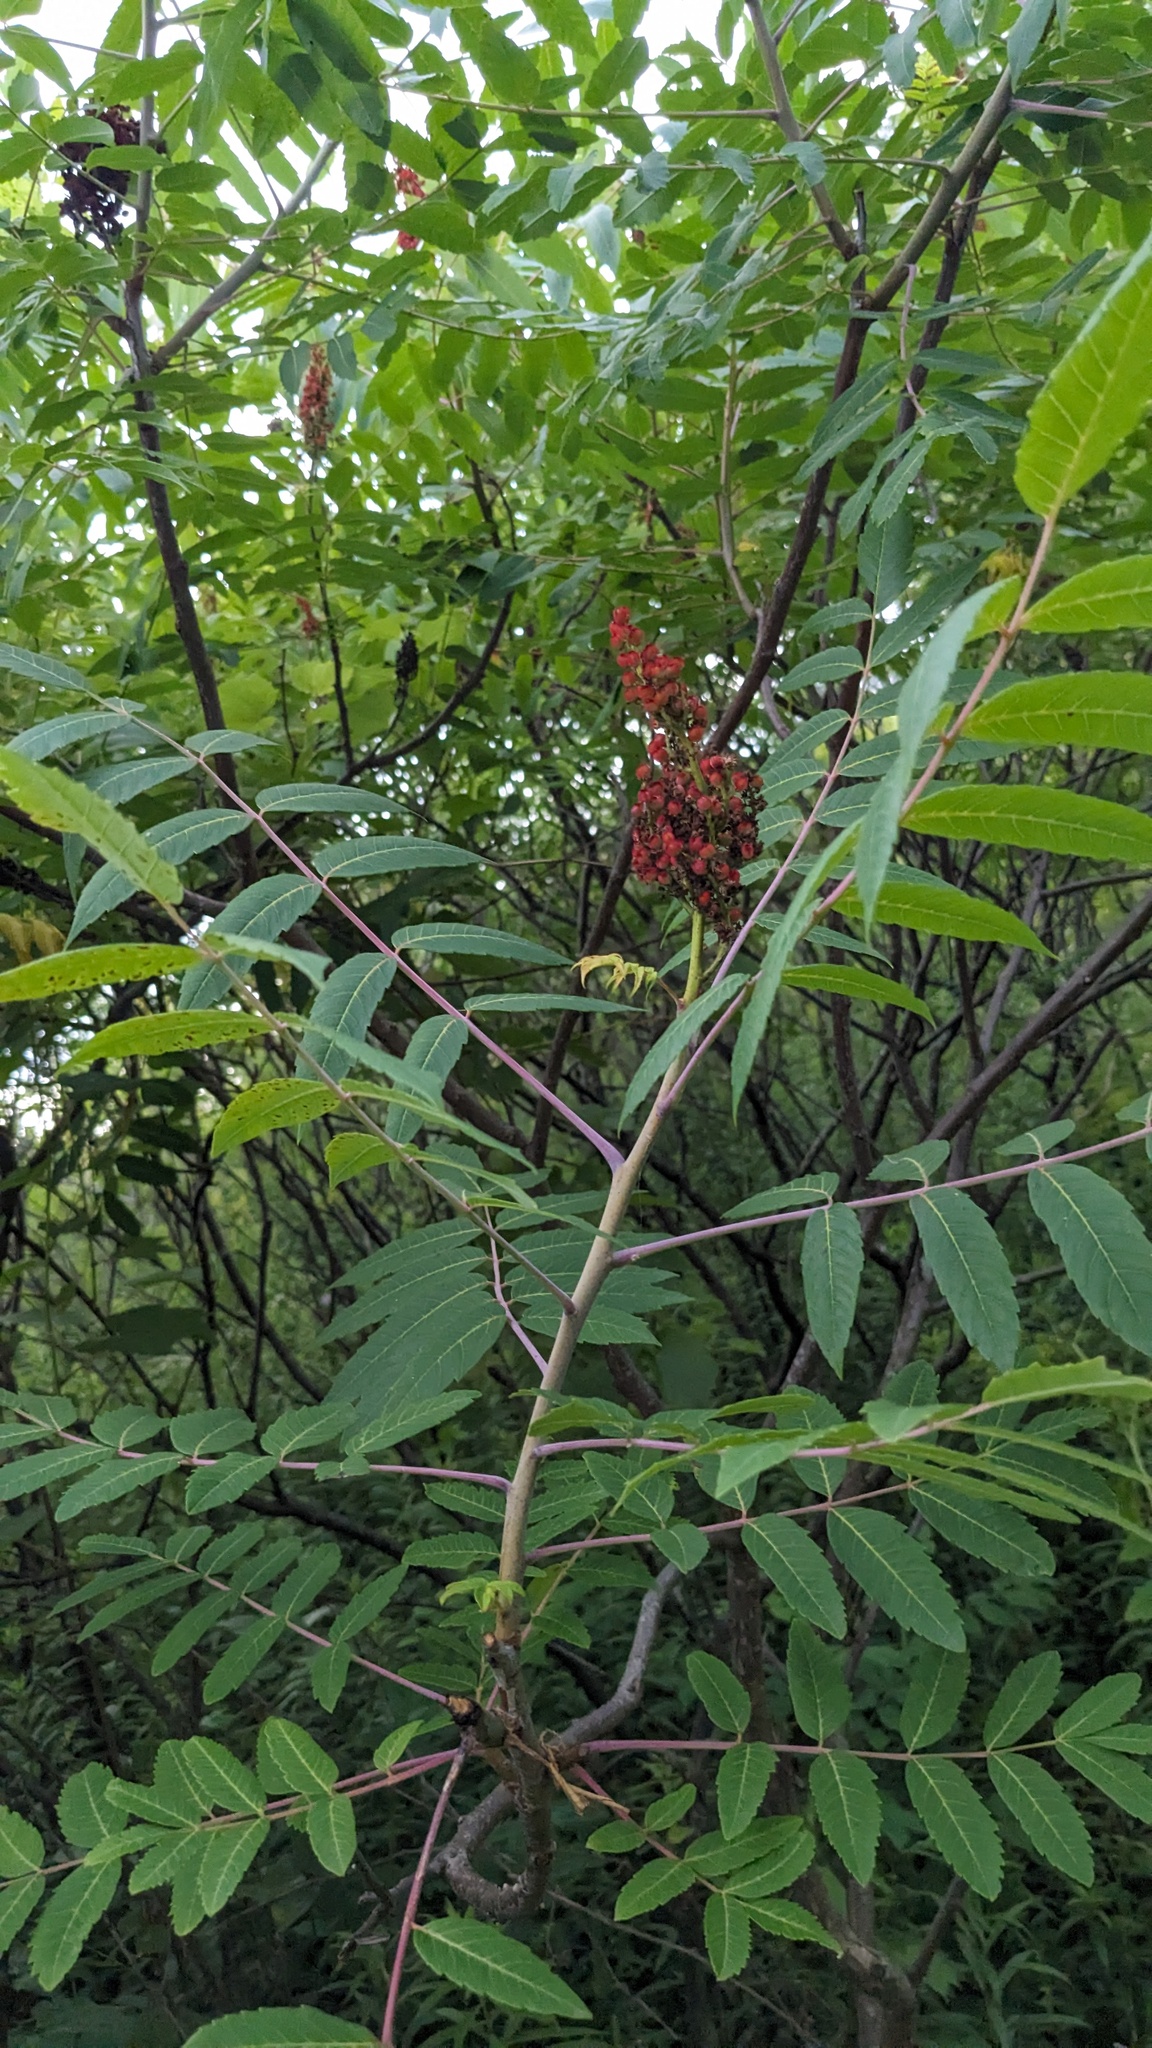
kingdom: Plantae
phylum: Tracheophyta
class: Magnoliopsida
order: Sapindales
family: Anacardiaceae
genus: Rhus
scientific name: Rhus glabra
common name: Scarlet sumac
